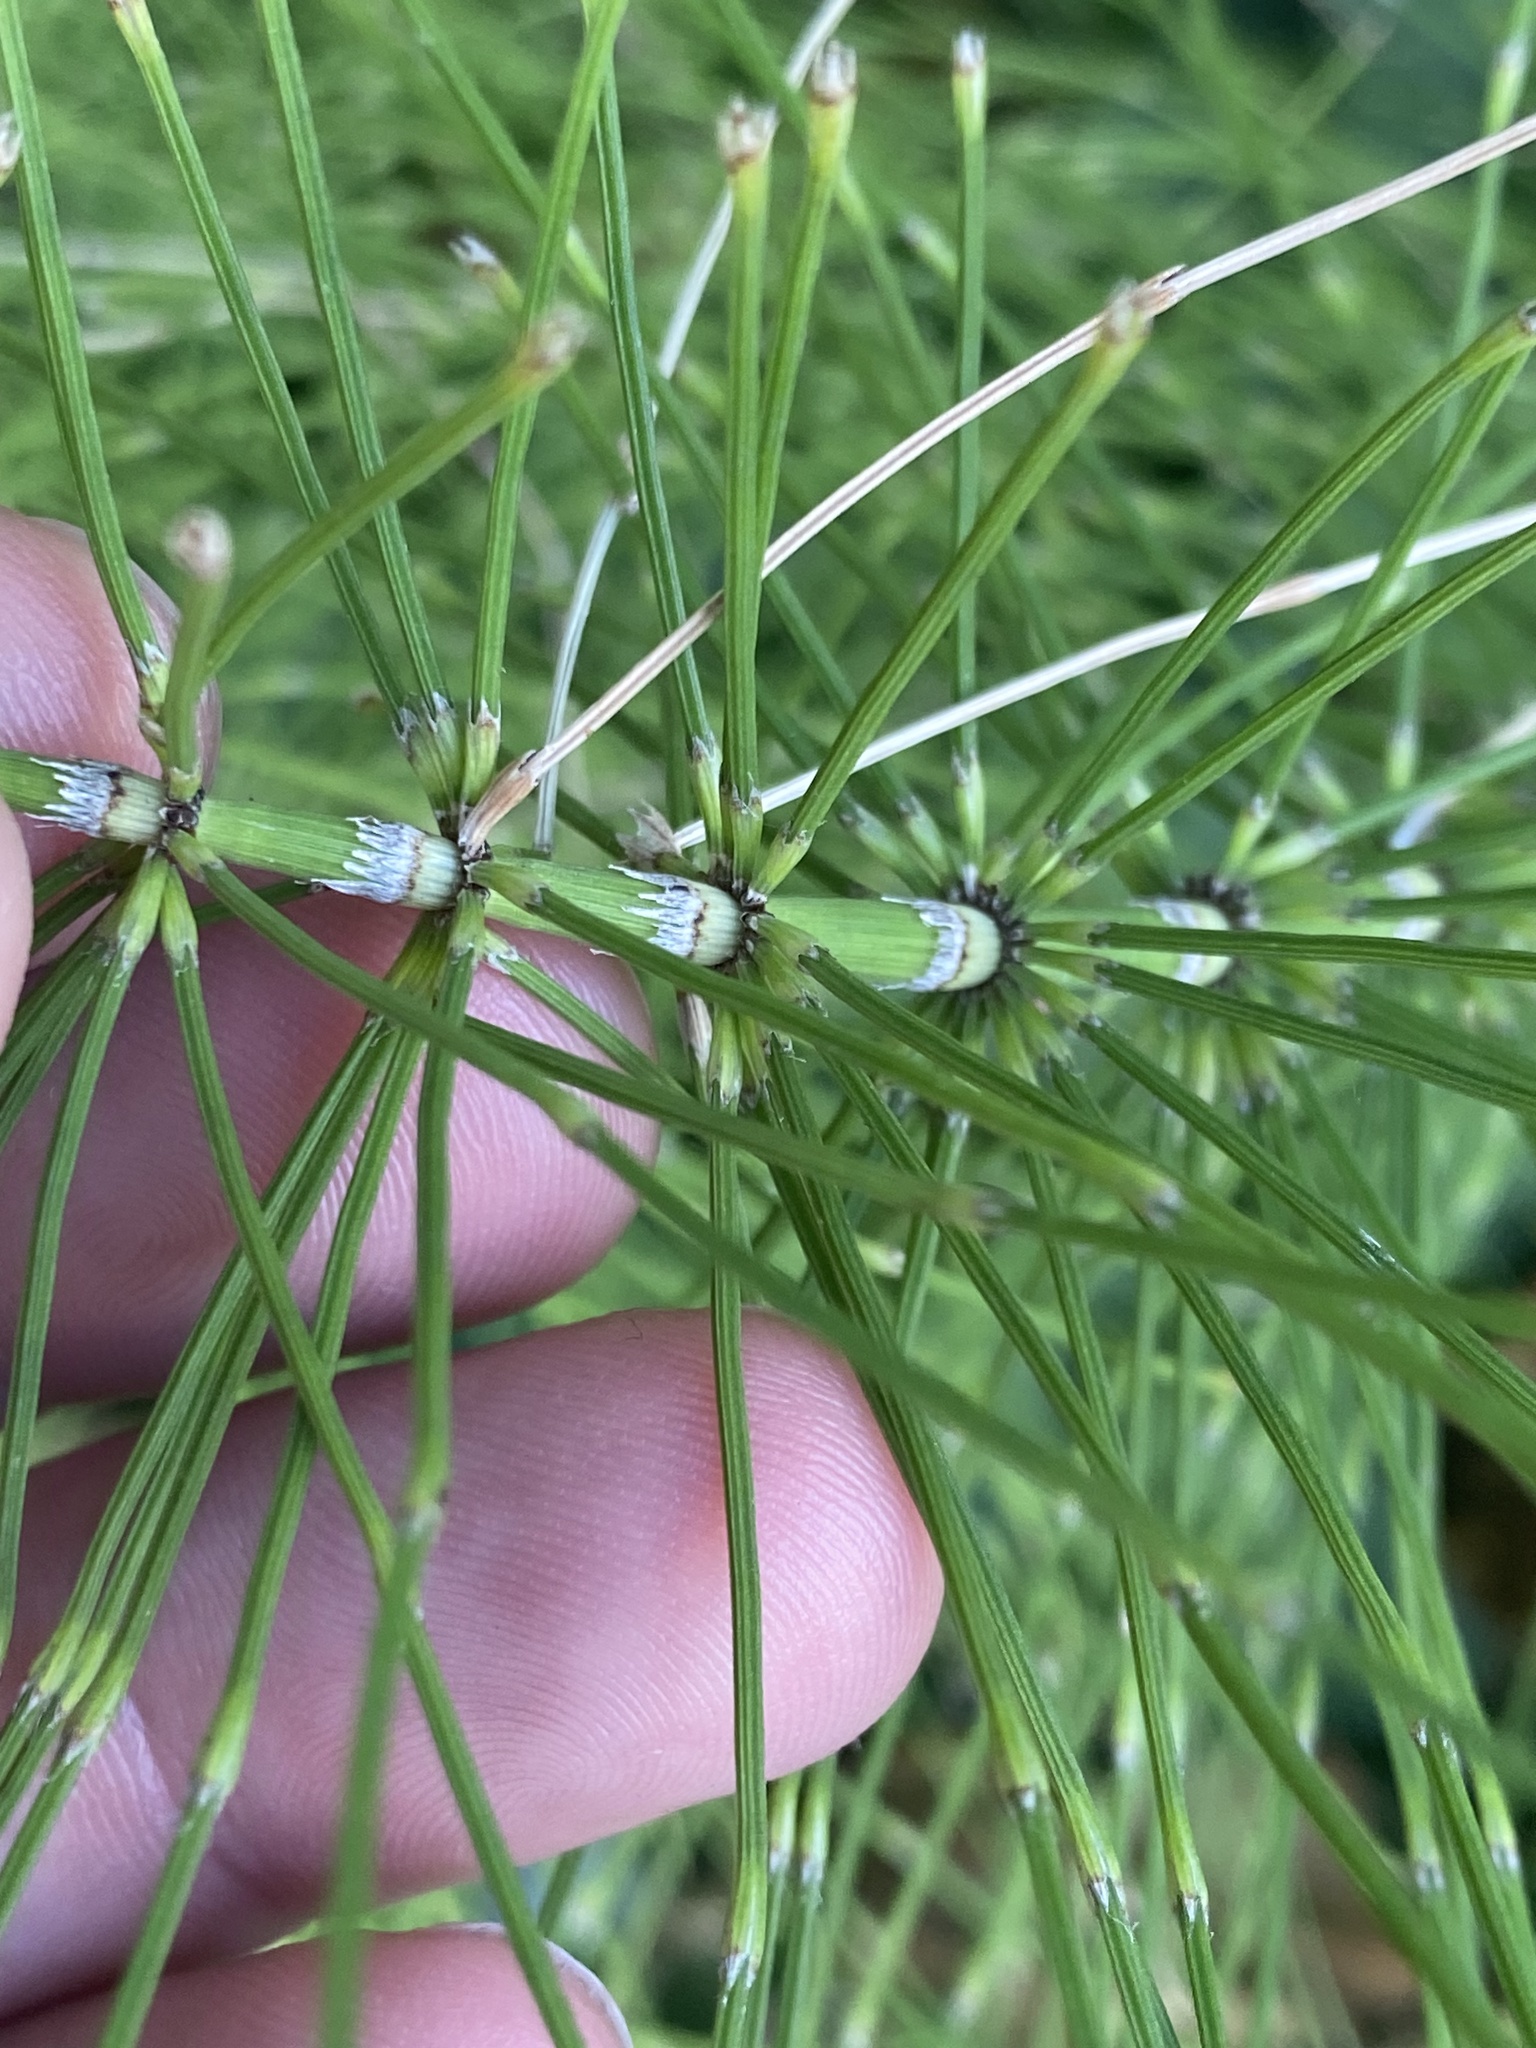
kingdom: Plantae
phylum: Tracheophyta
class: Polypodiopsida
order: Equisetales
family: Equisetaceae
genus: Equisetum
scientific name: Equisetum braunii
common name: Braun's horsetail
